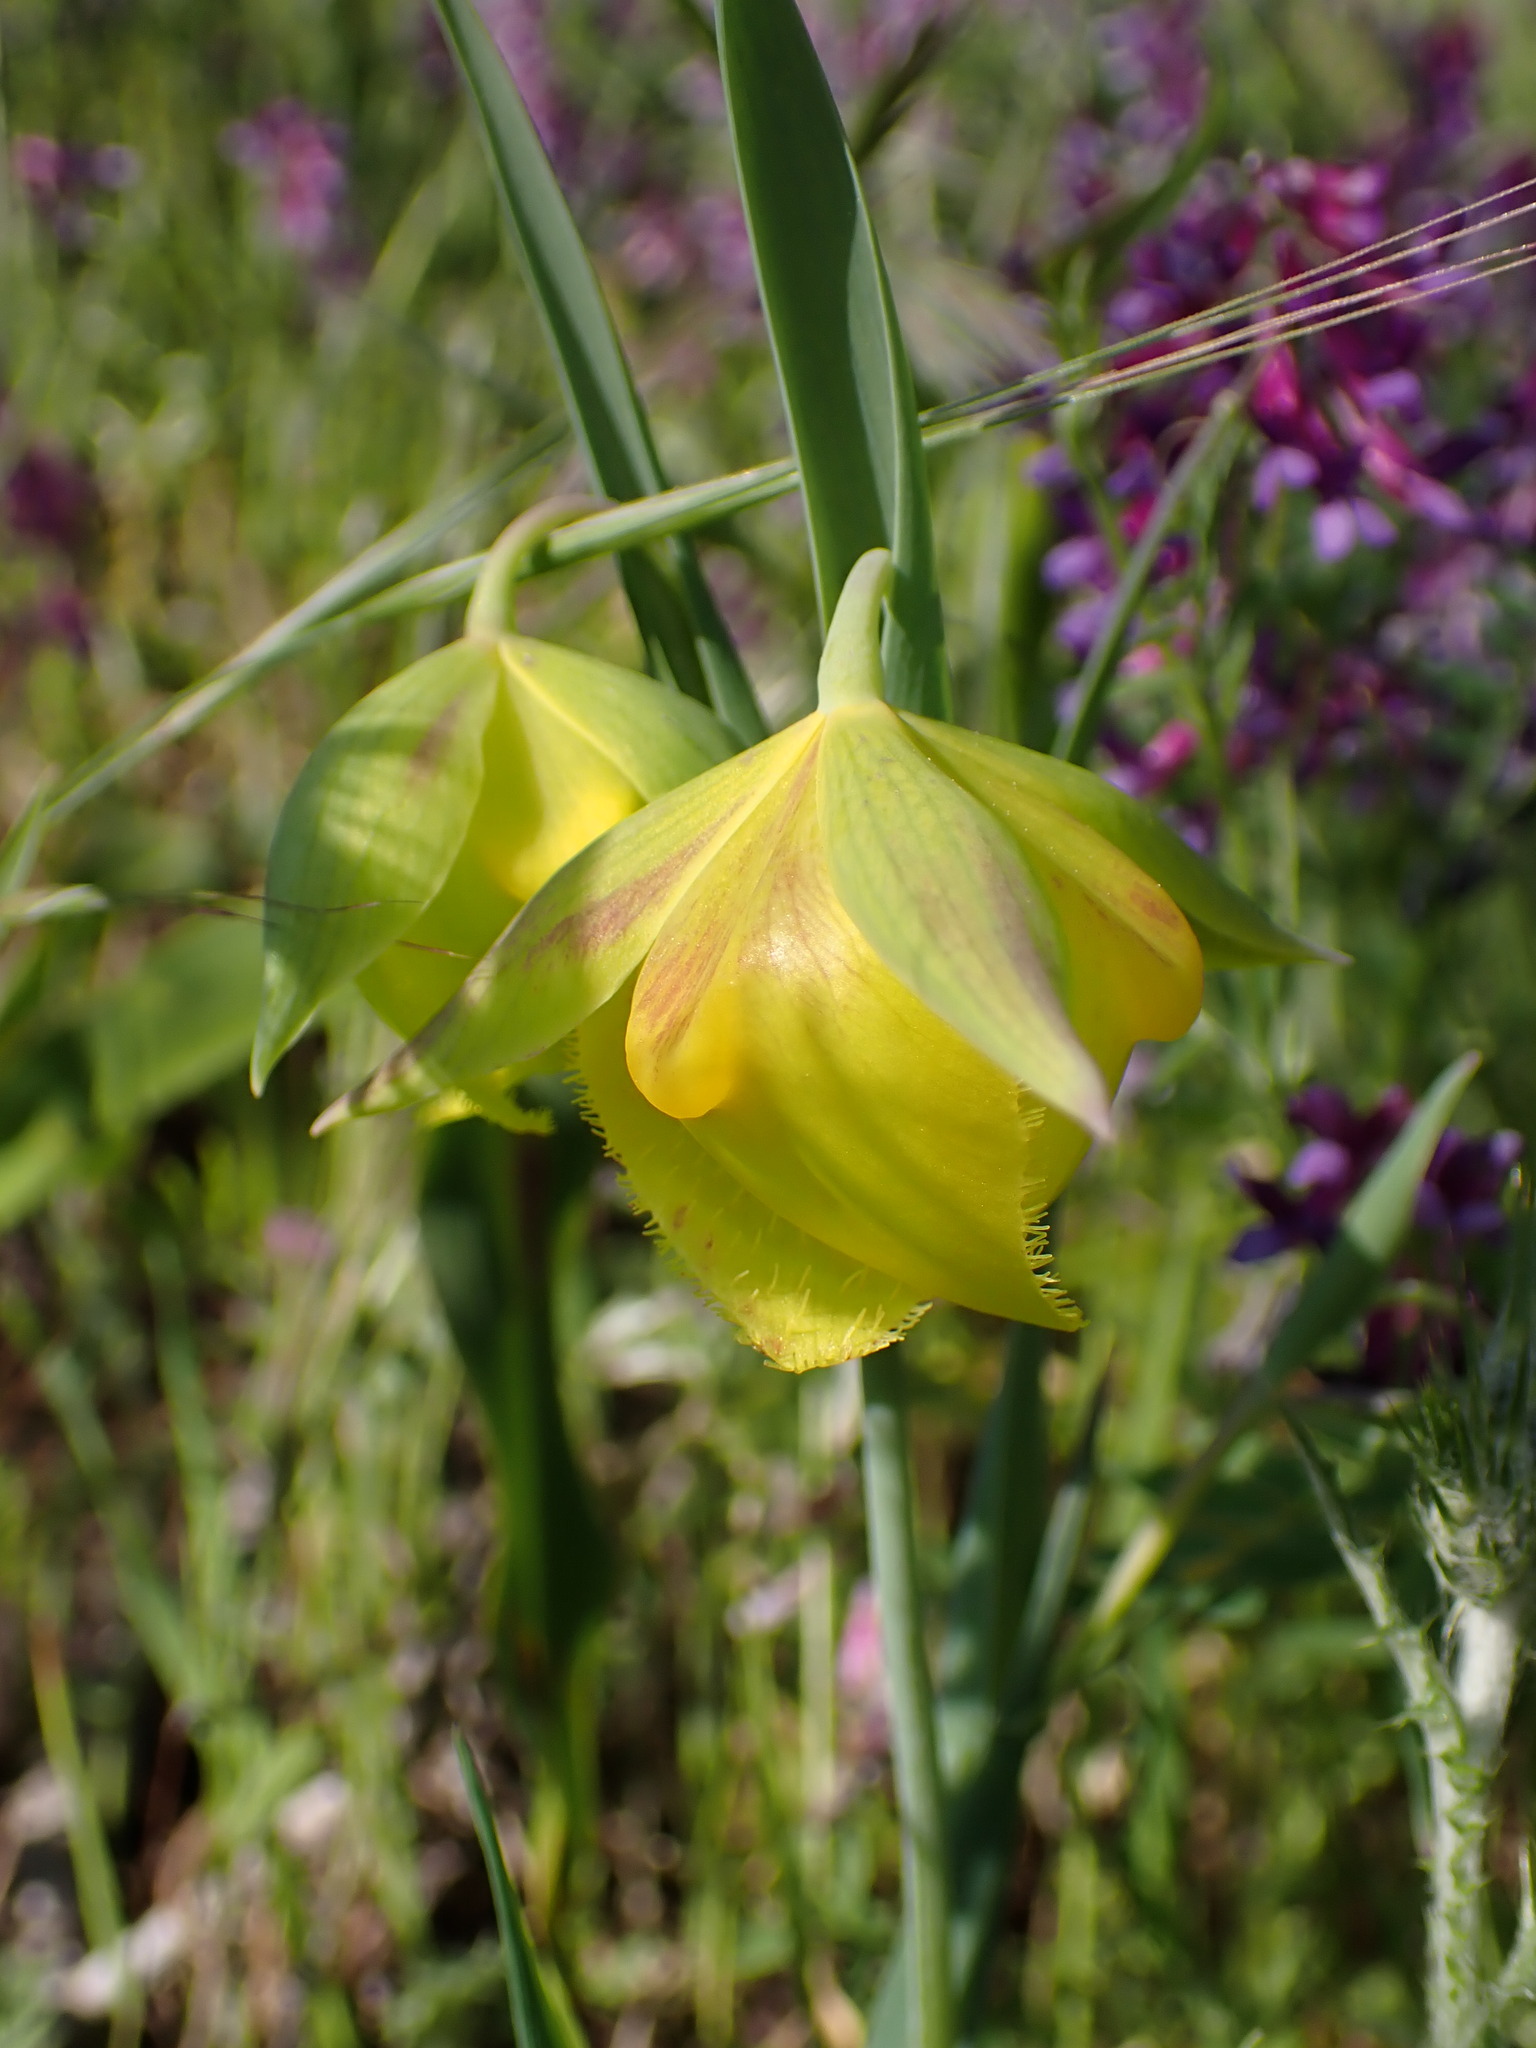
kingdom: Plantae
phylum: Tracheophyta
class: Liliopsida
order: Liliales
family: Liliaceae
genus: Calochortus
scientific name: Calochortus pulchellus
